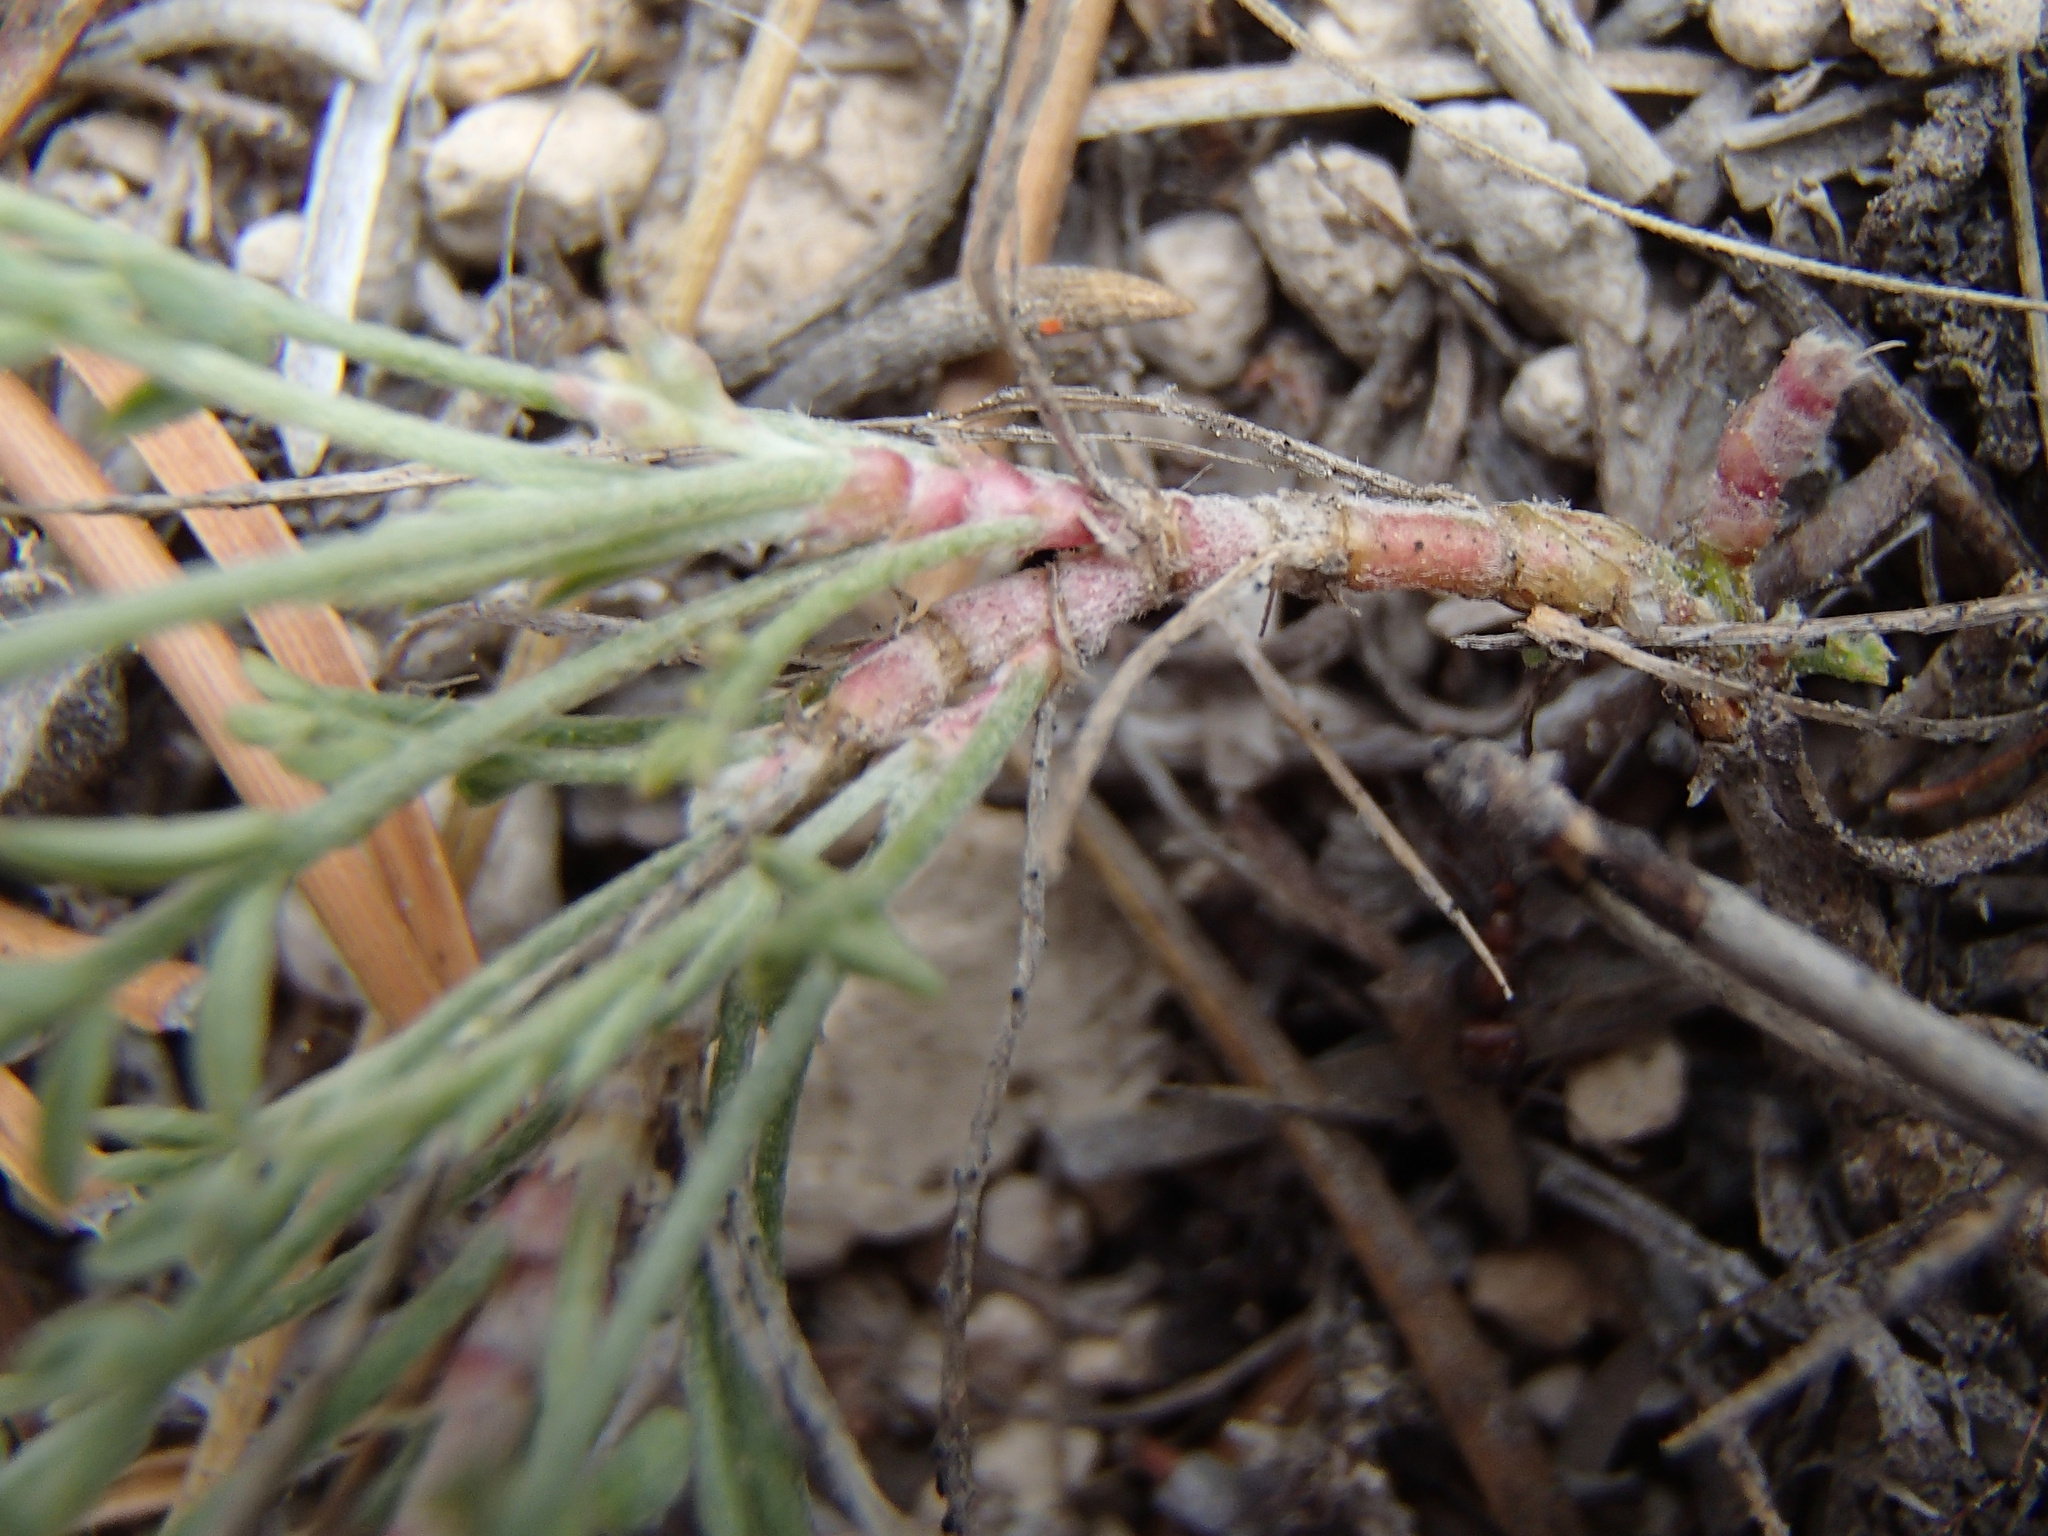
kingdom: Plantae
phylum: Tracheophyta
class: Magnoliopsida
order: Fabales
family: Fabaceae
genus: Astragalus
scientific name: Astragalus peckii
